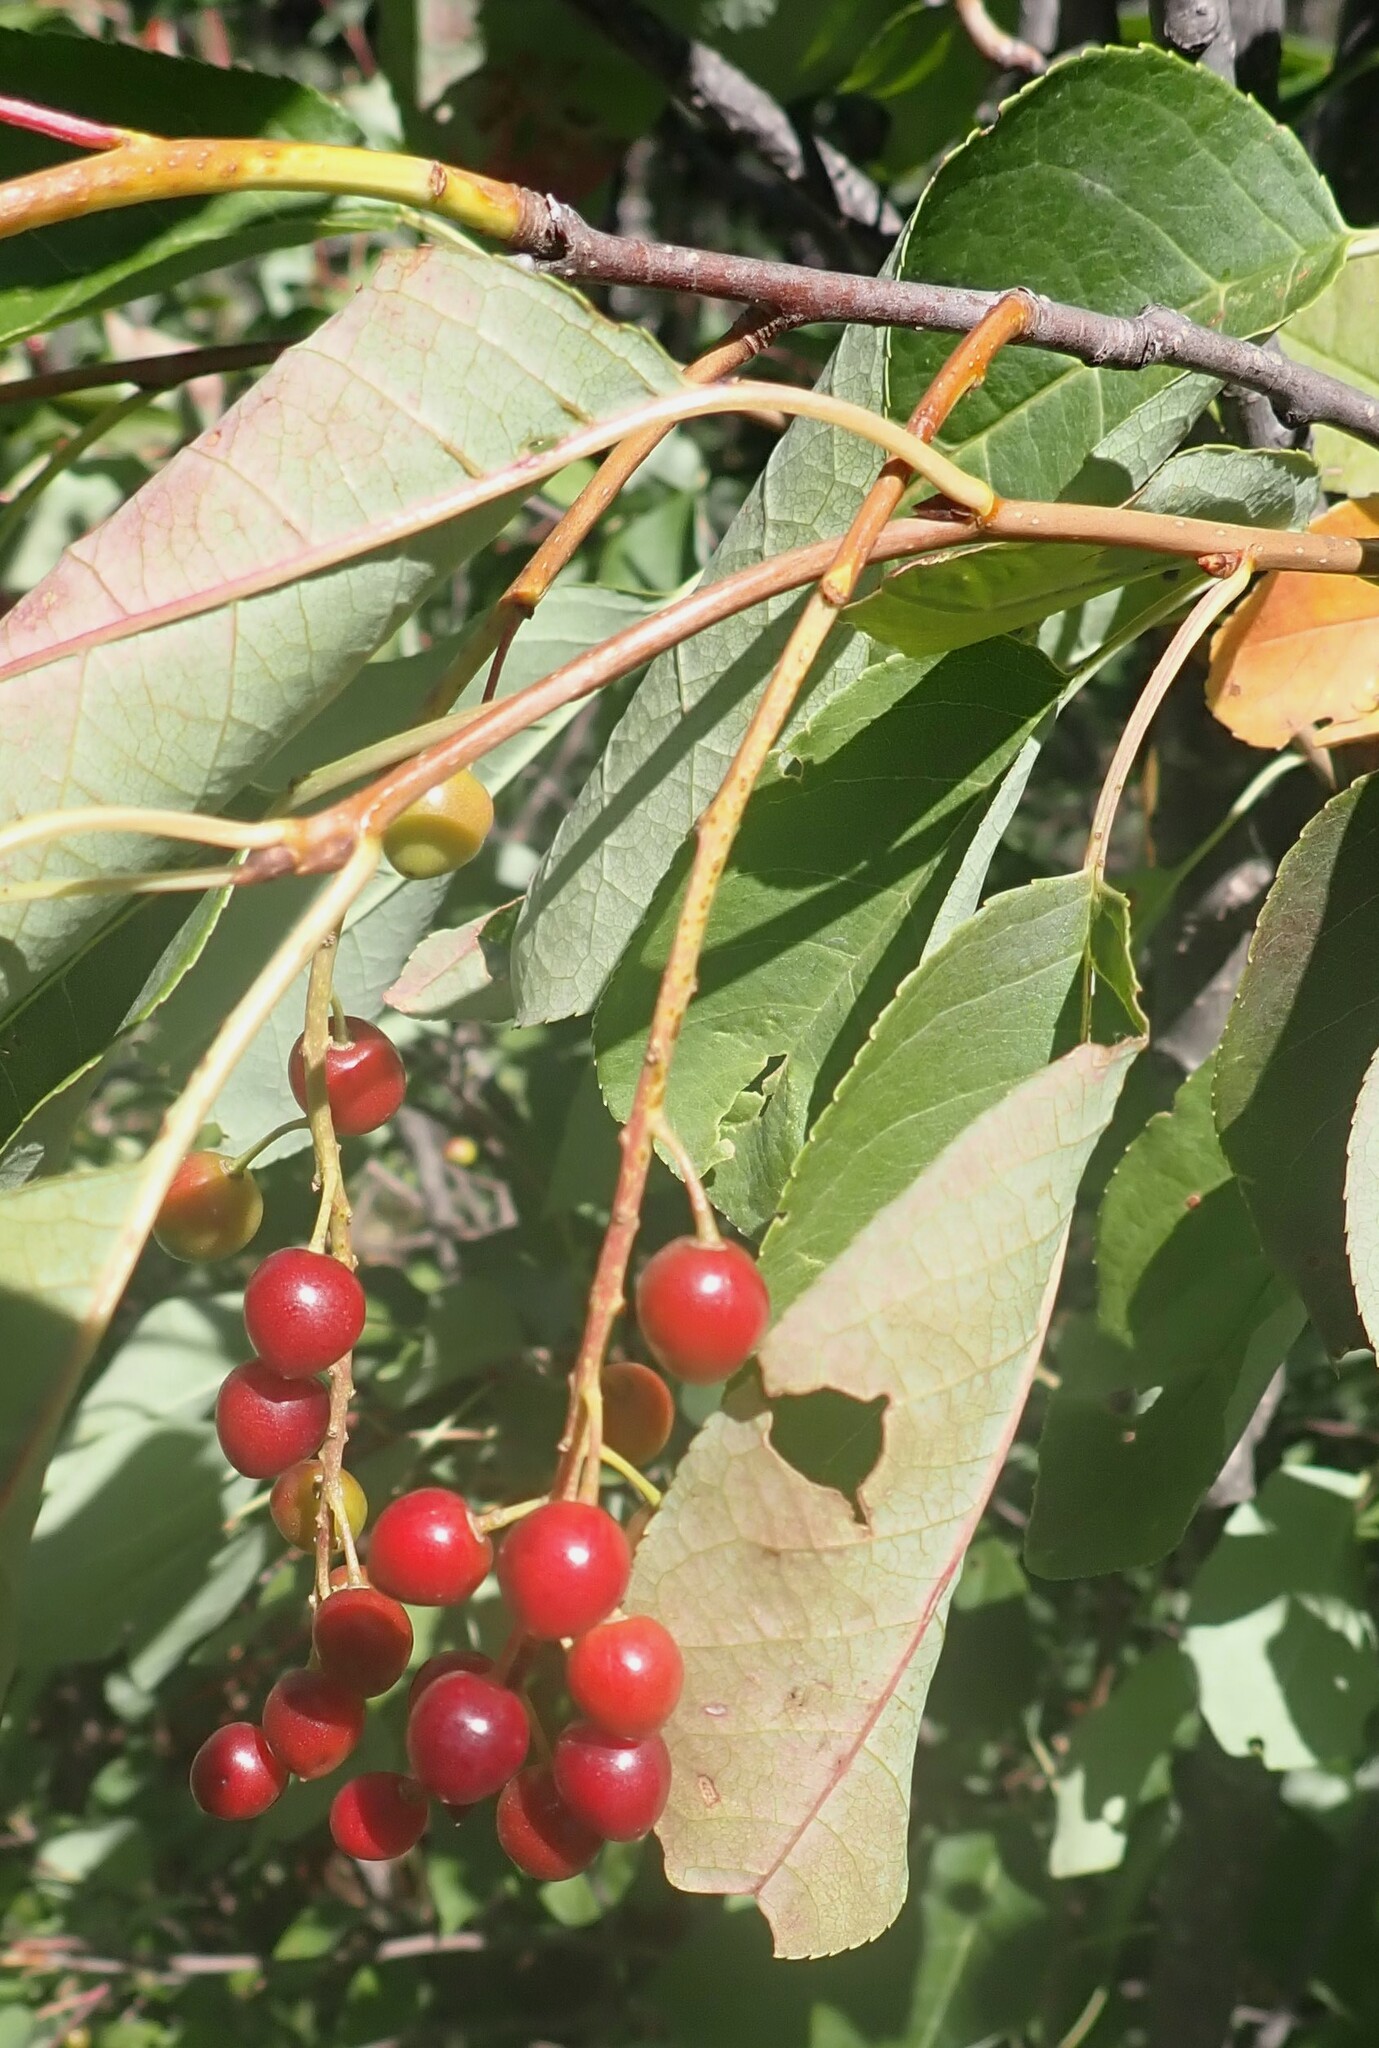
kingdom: Plantae
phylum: Tracheophyta
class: Magnoliopsida
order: Rosales
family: Rosaceae
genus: Prunus
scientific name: Prunus virginiana
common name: Chokecherry
